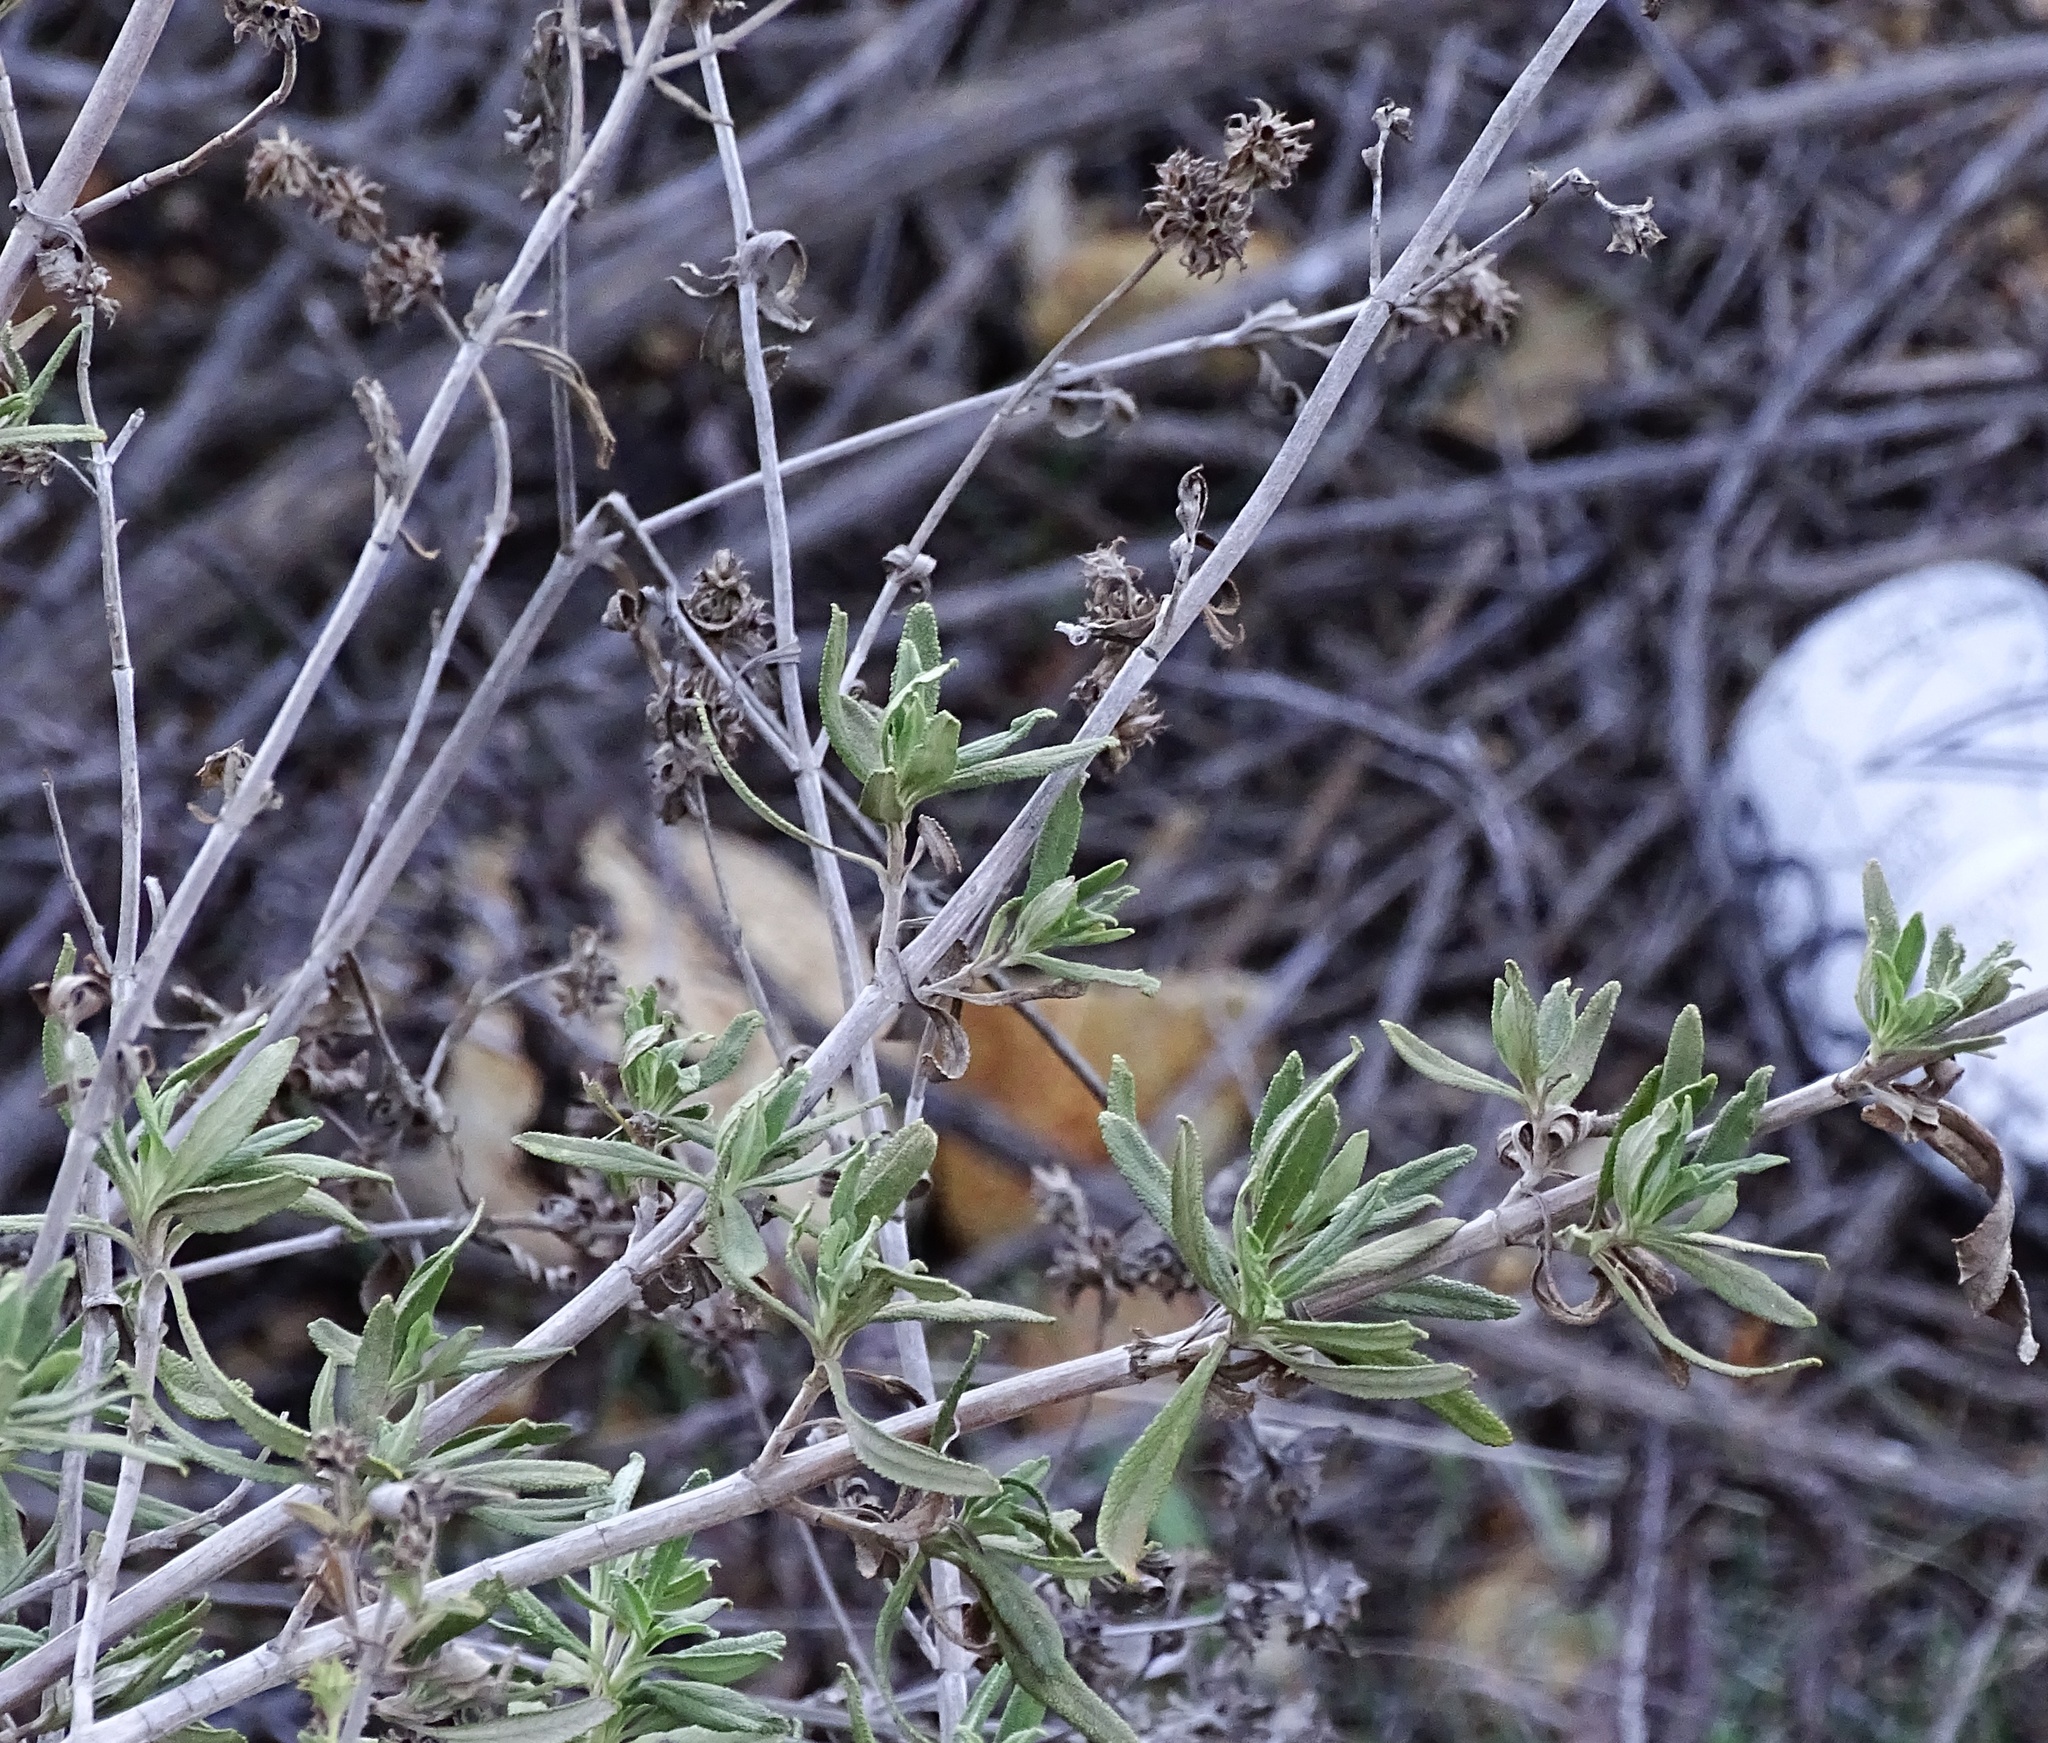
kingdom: Plantae
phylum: Tracheophyta
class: Magnoliopsida
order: Lamiales
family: Lamiaceae
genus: Salvia
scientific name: Salvia mellifera
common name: Black sage
